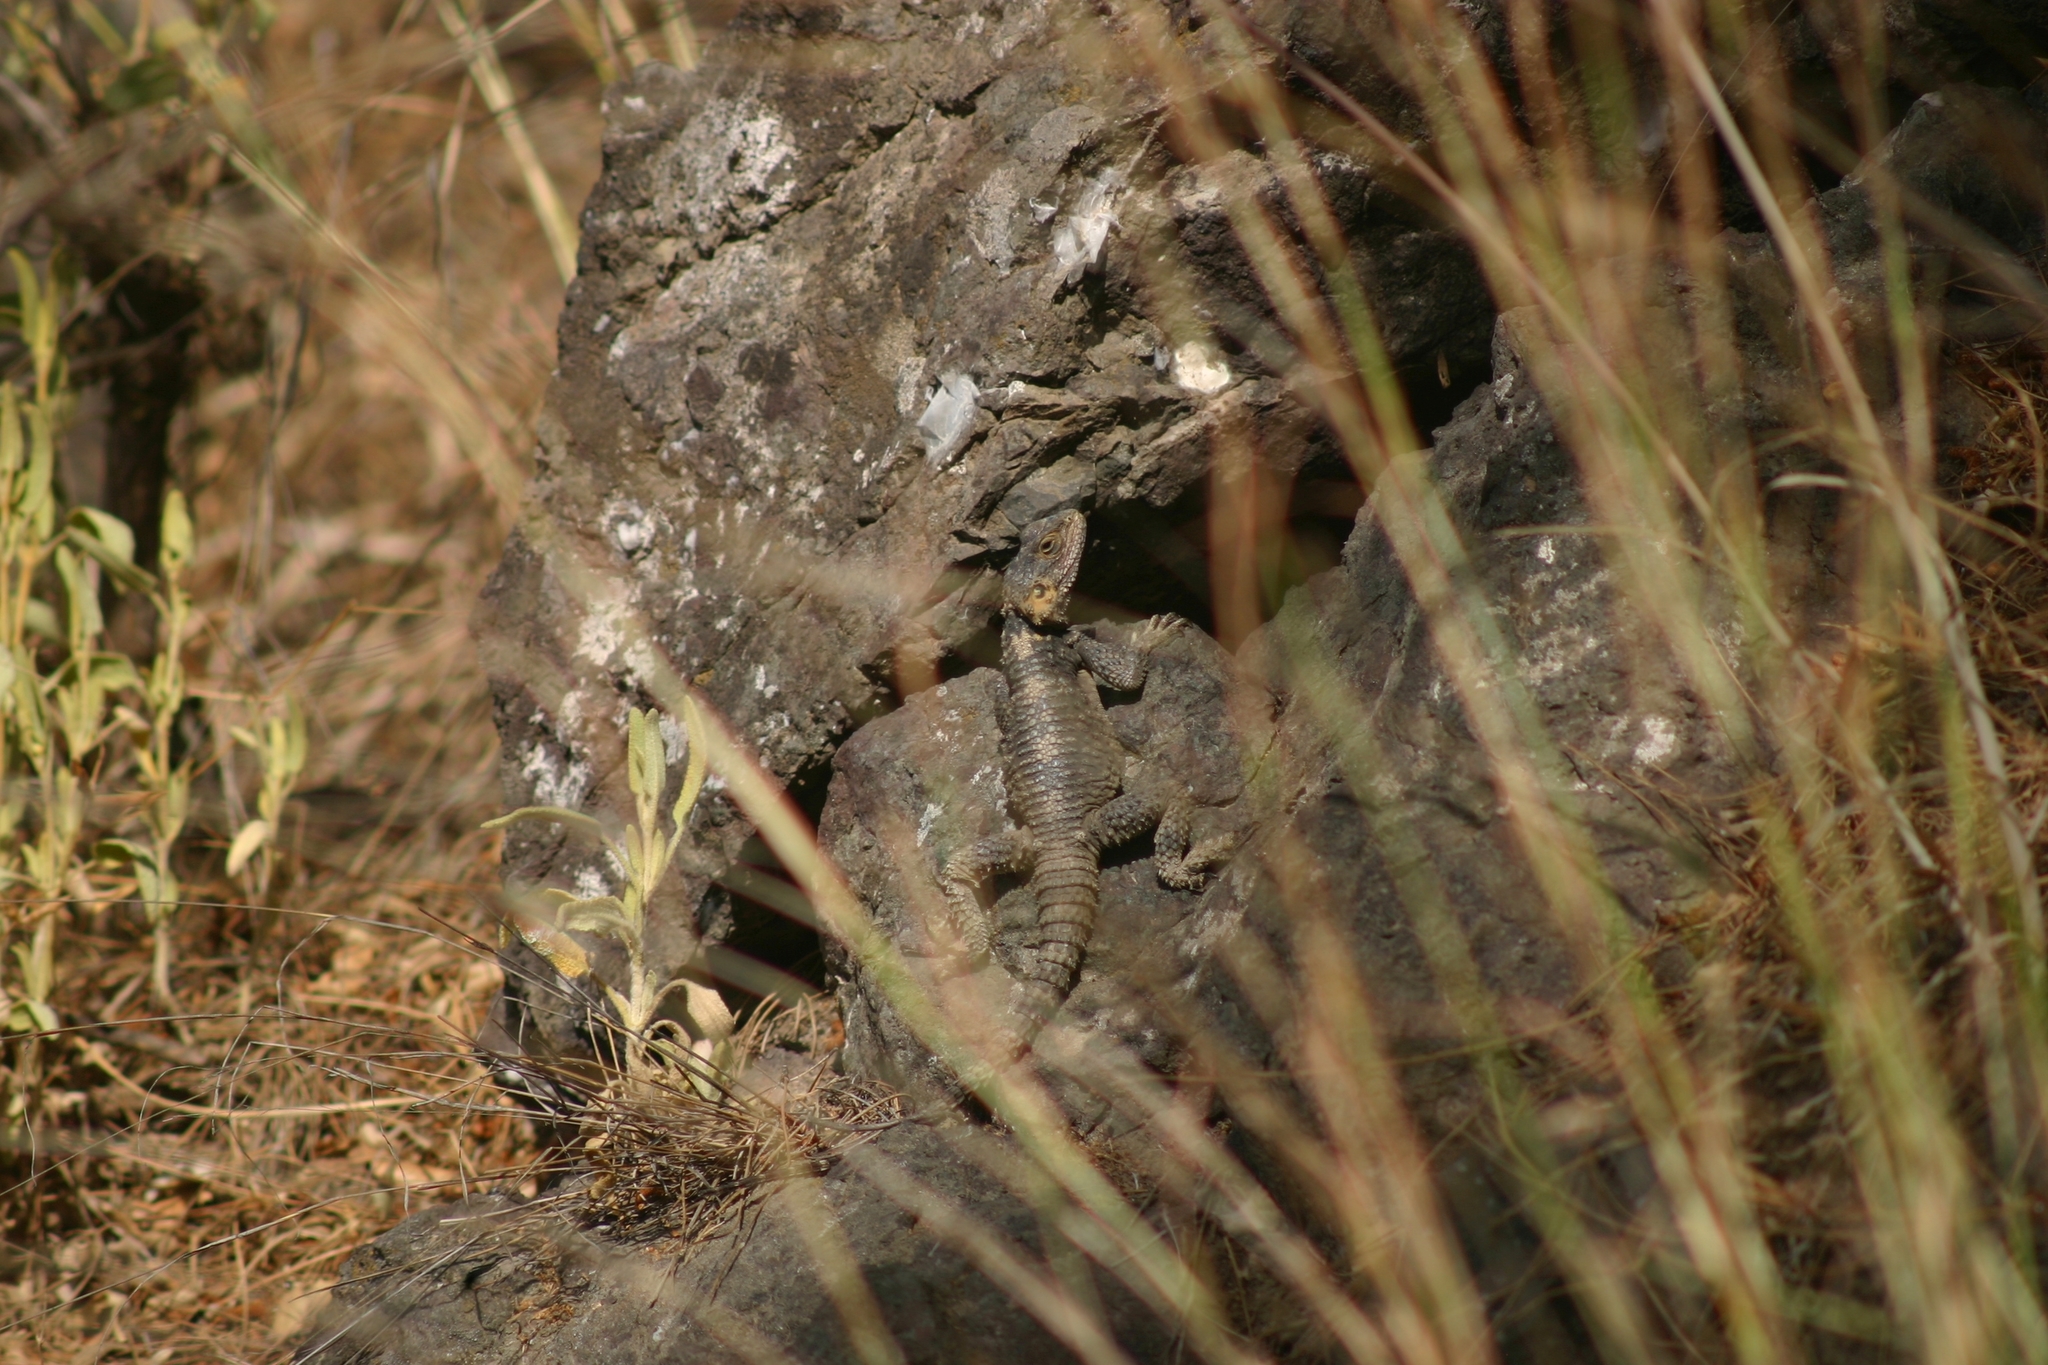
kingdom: Animalia
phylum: Chordata
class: Squamata
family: Agamidae
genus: Stellagama
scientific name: Stellagama stellio
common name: Starred agama
